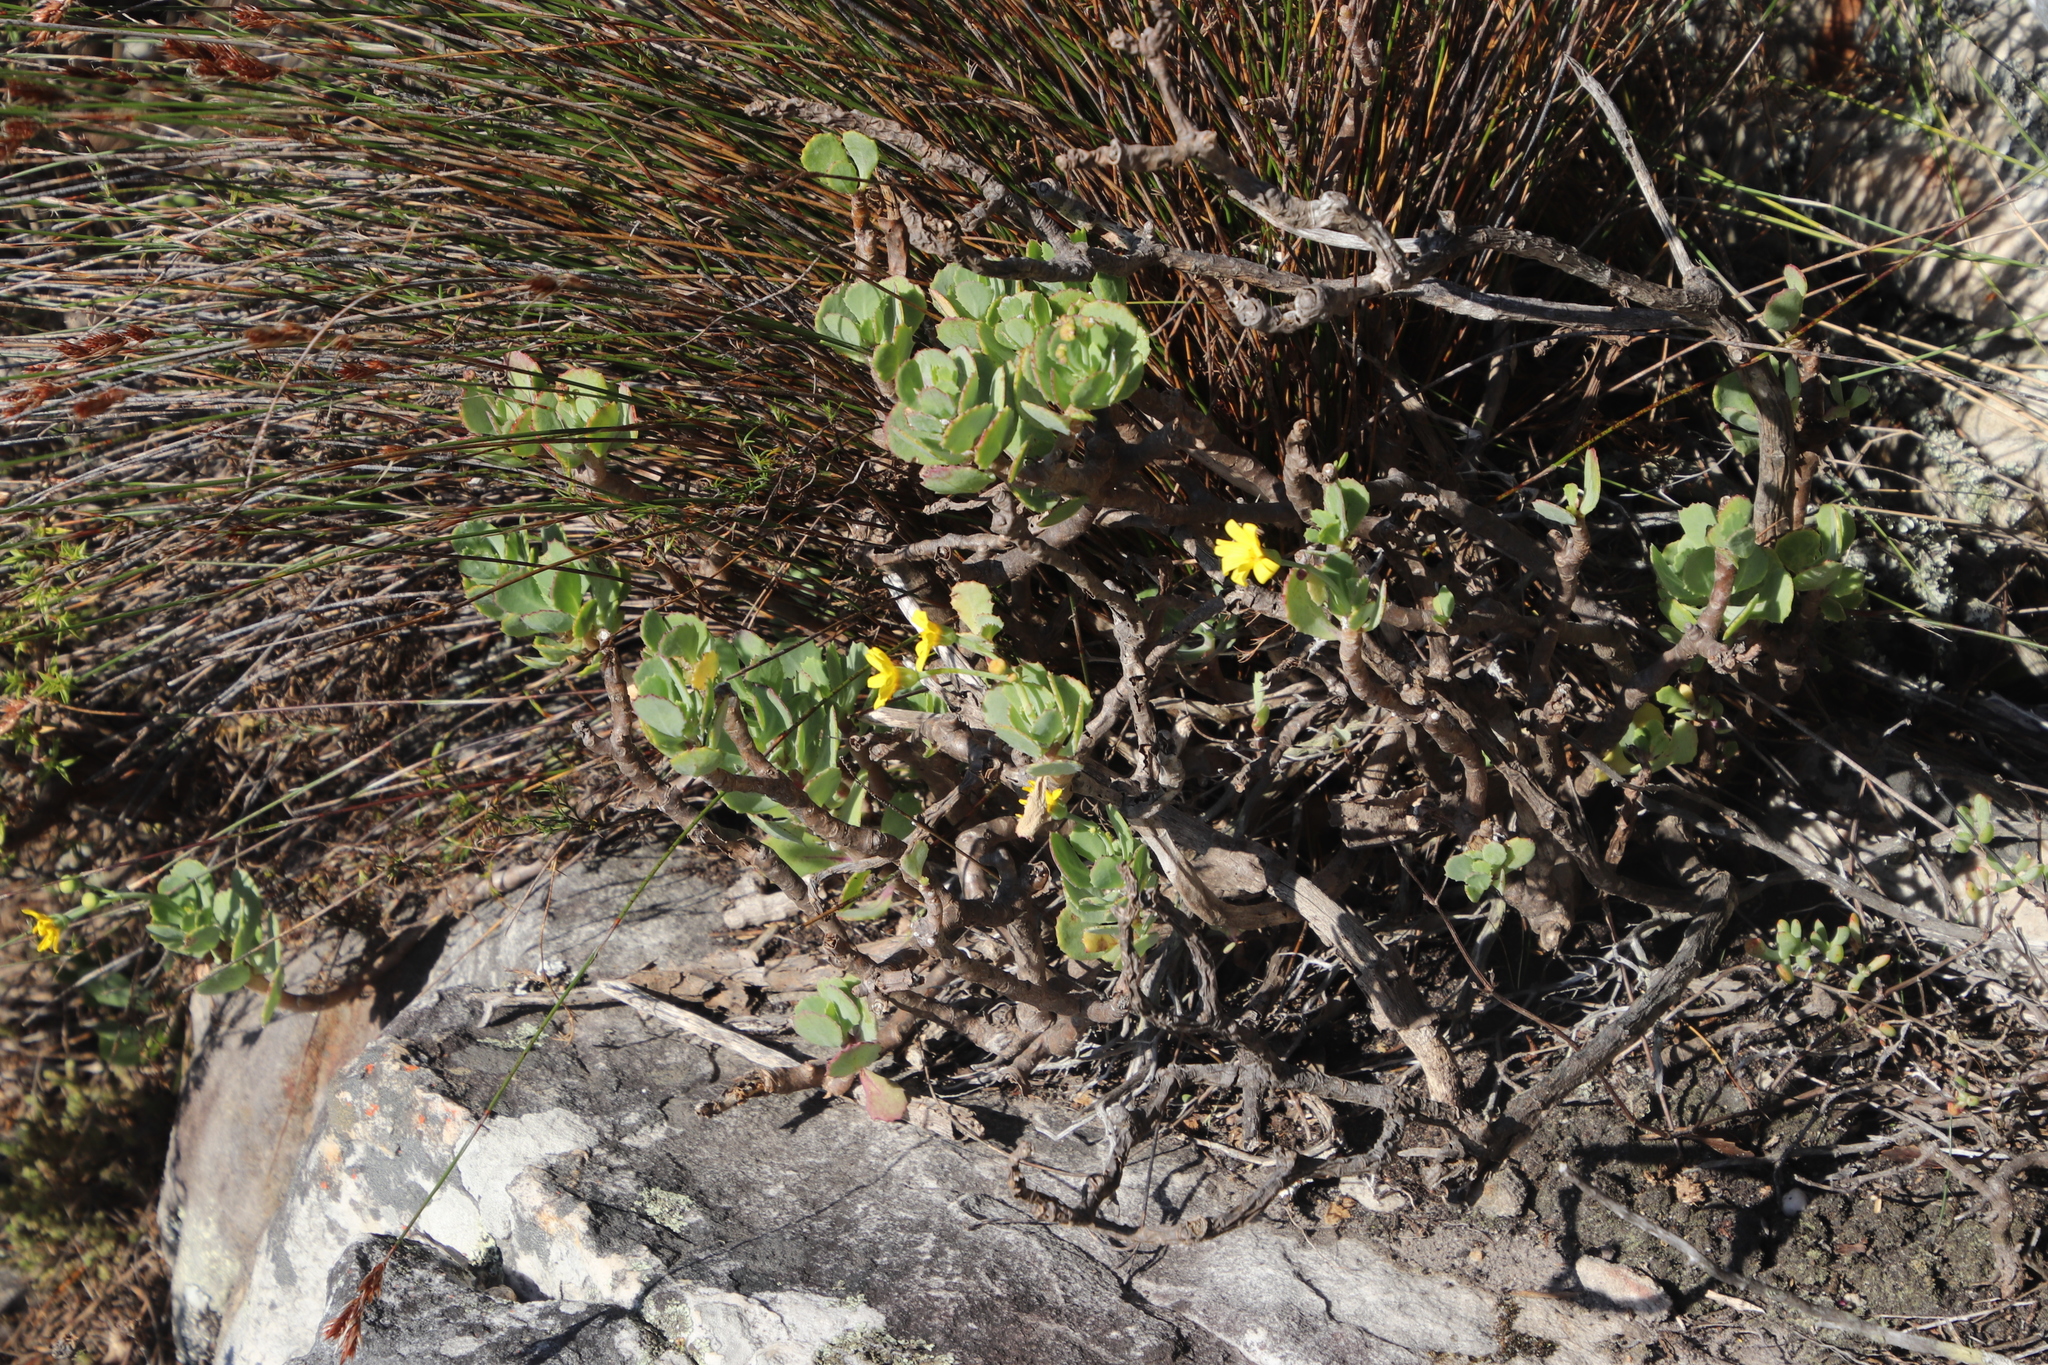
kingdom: Plantae
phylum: Tracheophyta
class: Magnoliopsida
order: Asterales
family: Asteraceae
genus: Othonna
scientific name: Othonna dentata
